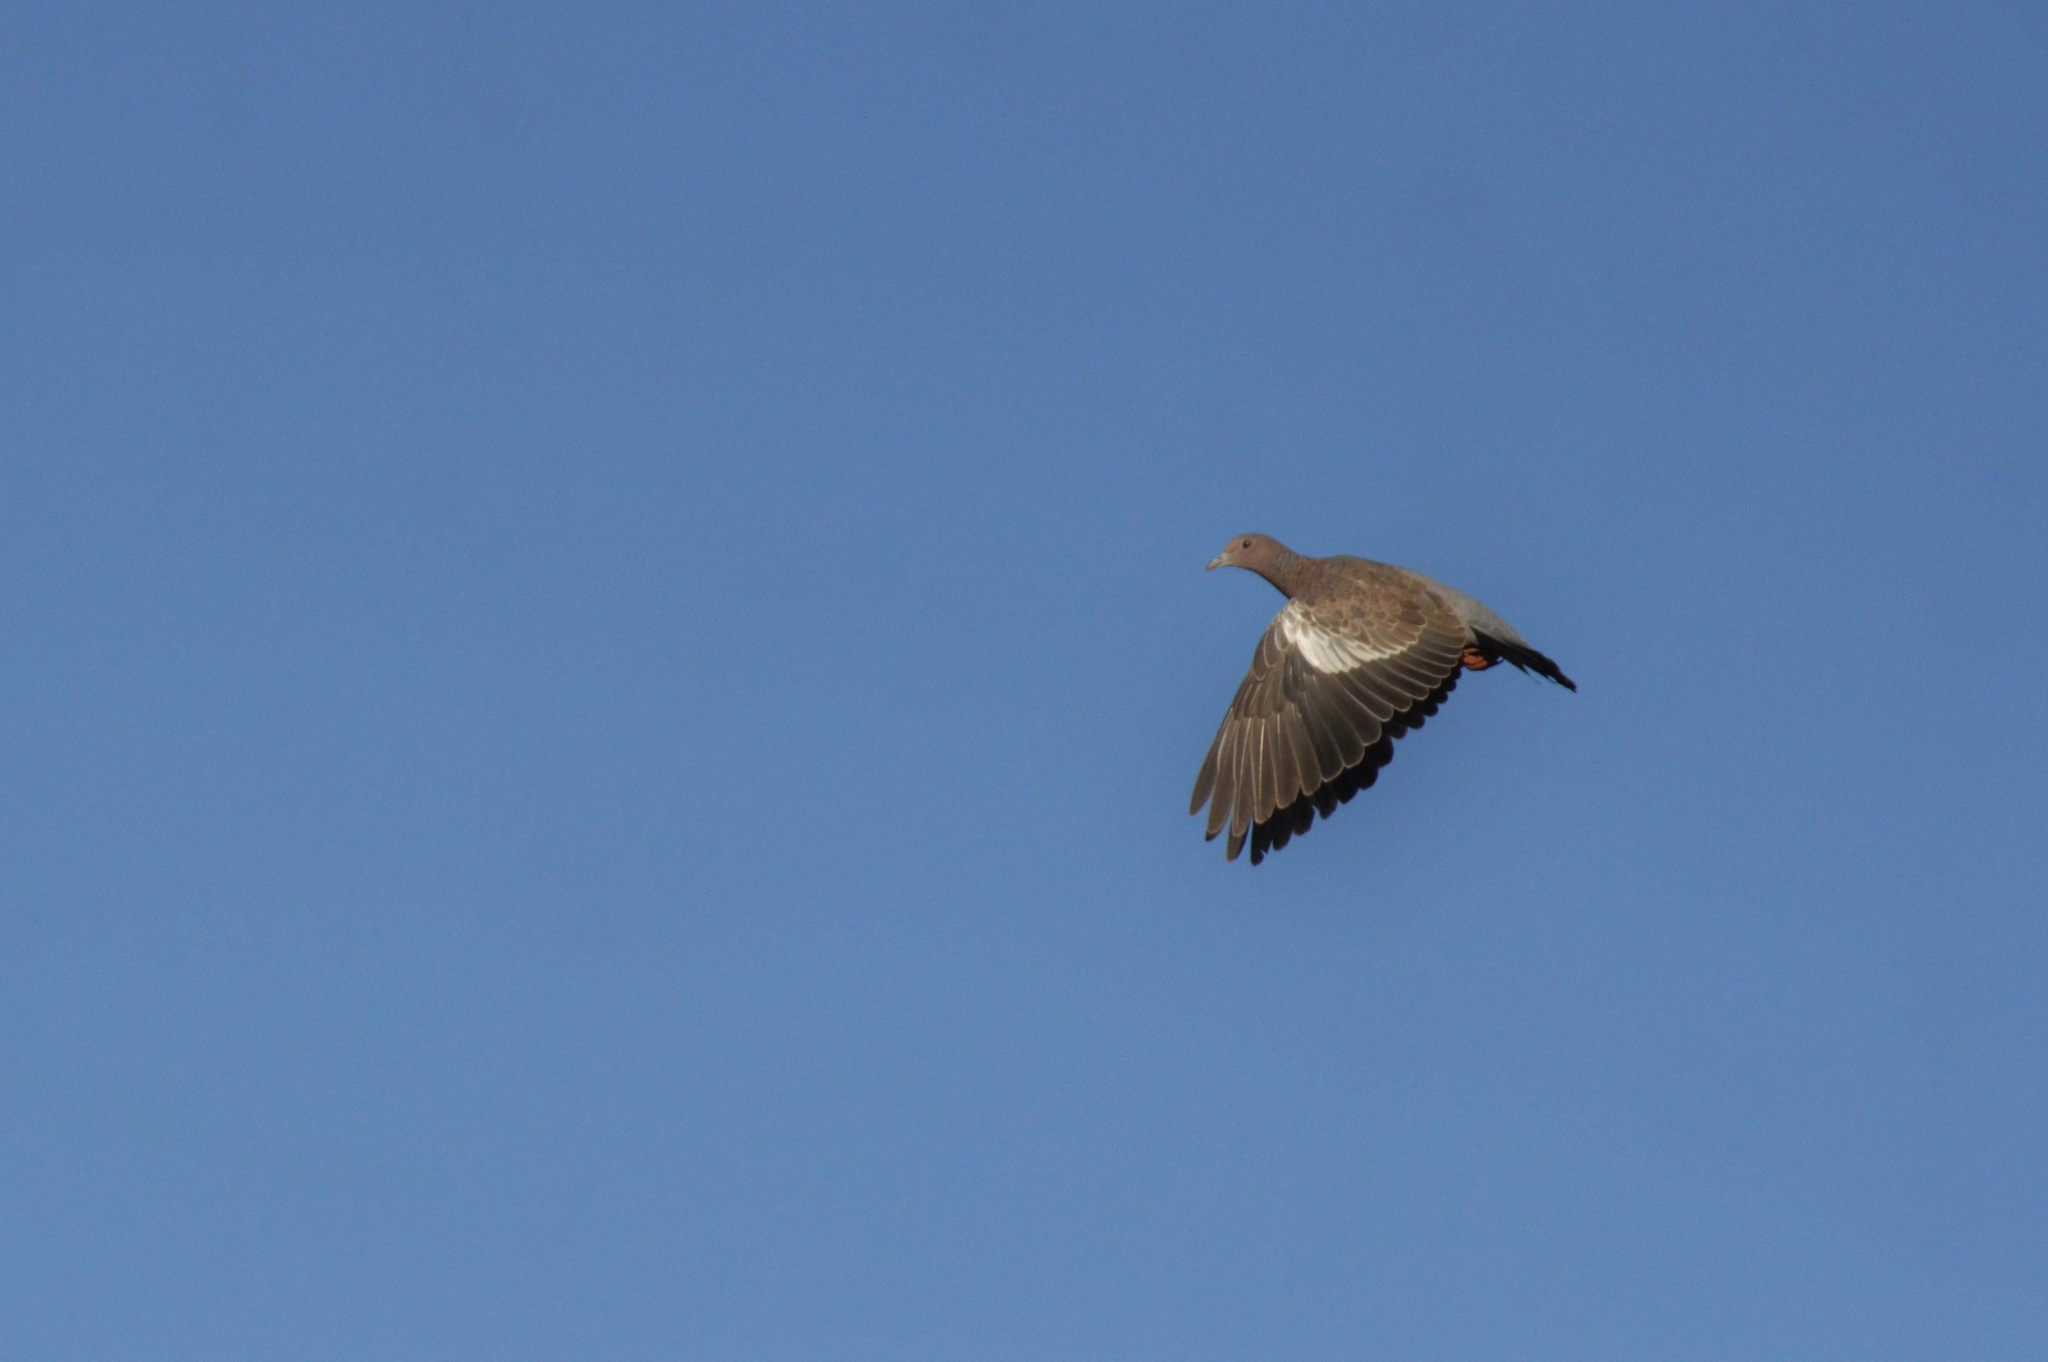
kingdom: Animalia
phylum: Chordata
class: Aves
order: Columbiformes
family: Columbidae
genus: Patagioenas
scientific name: Patagioenas picazuro
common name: Picazuro pigeon
